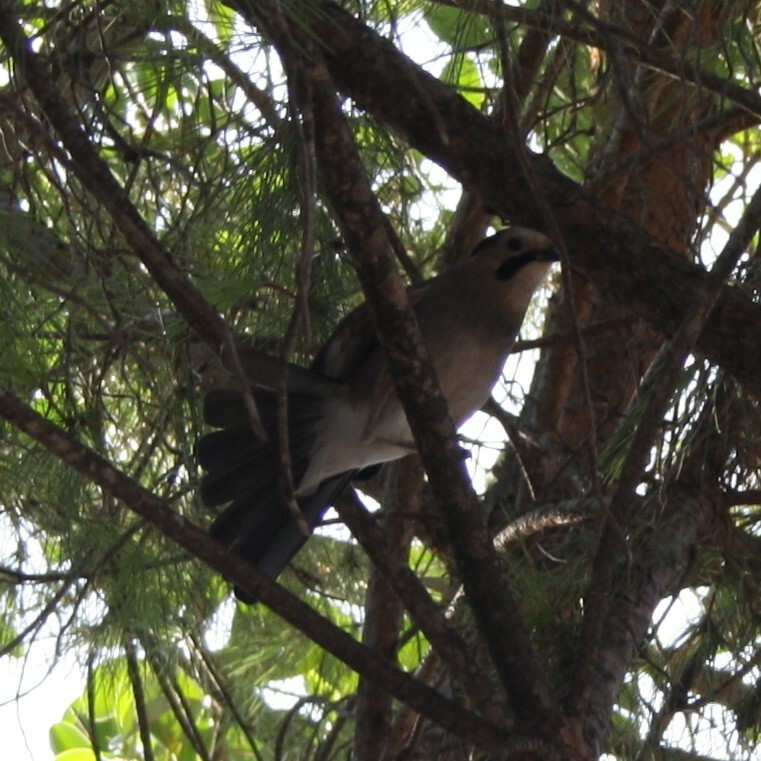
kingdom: Animalia
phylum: Chordata
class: Aves
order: Passeriformes
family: Corvidae
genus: Garrulus
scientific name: Garrulus glandarius
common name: Eurasian jay
